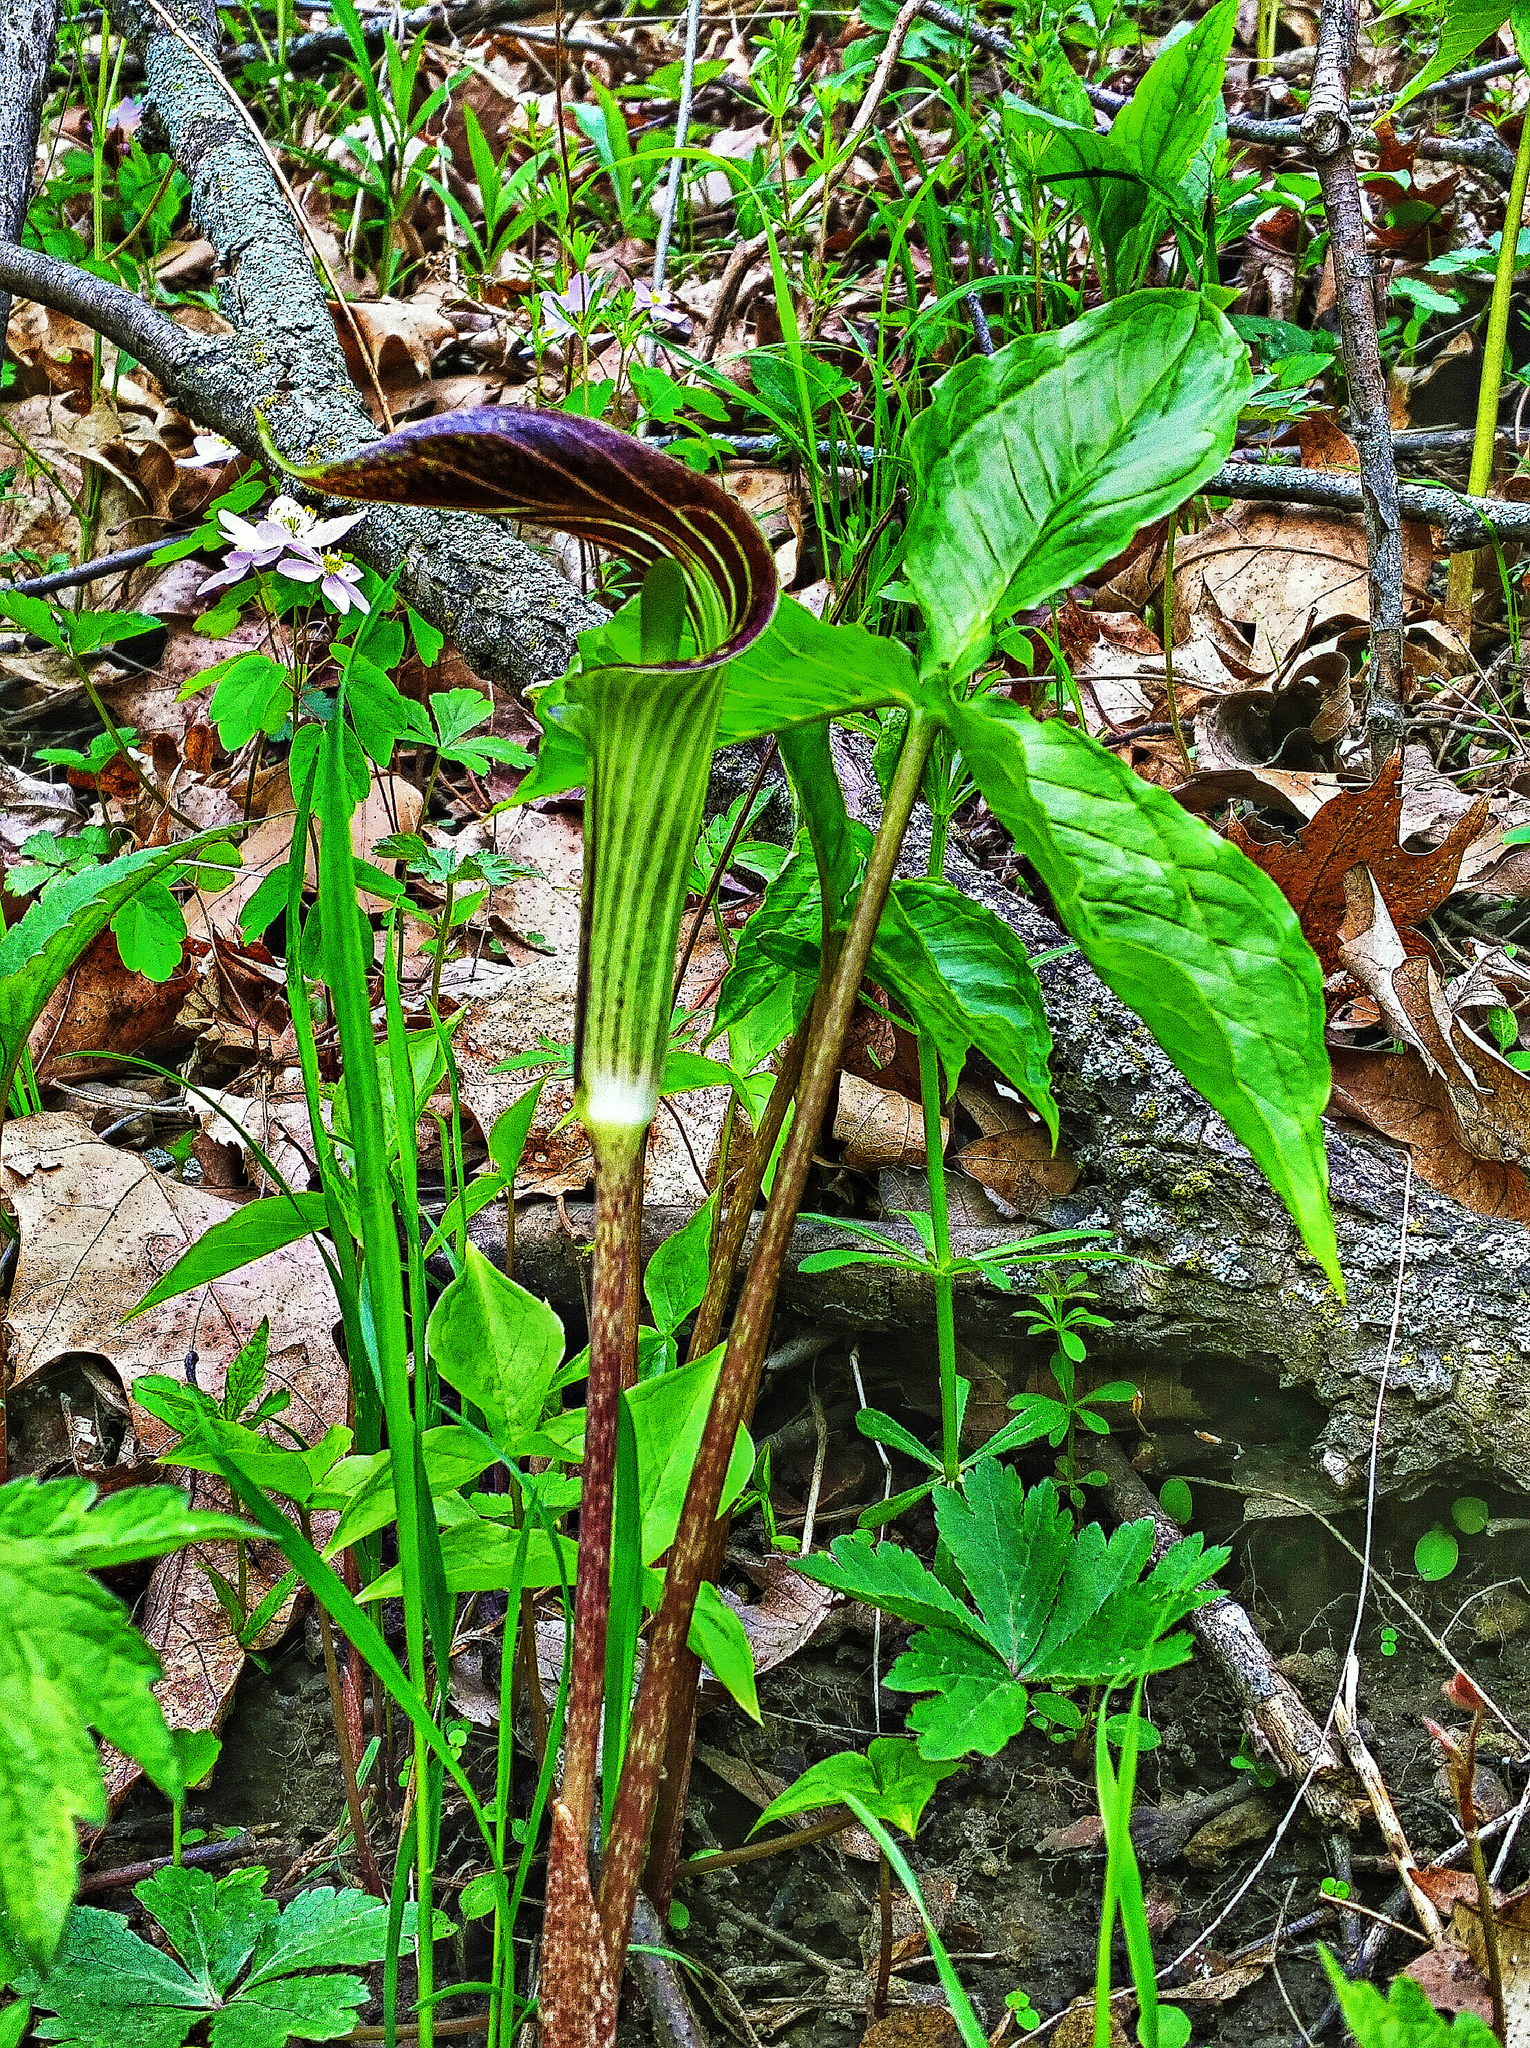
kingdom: Plantae
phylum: Tracheophyta
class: Liliopsida
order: Alismatales
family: Araceae
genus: Arisaema
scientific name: Arisaema triphyllum
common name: Jack-in-the-pulpit
